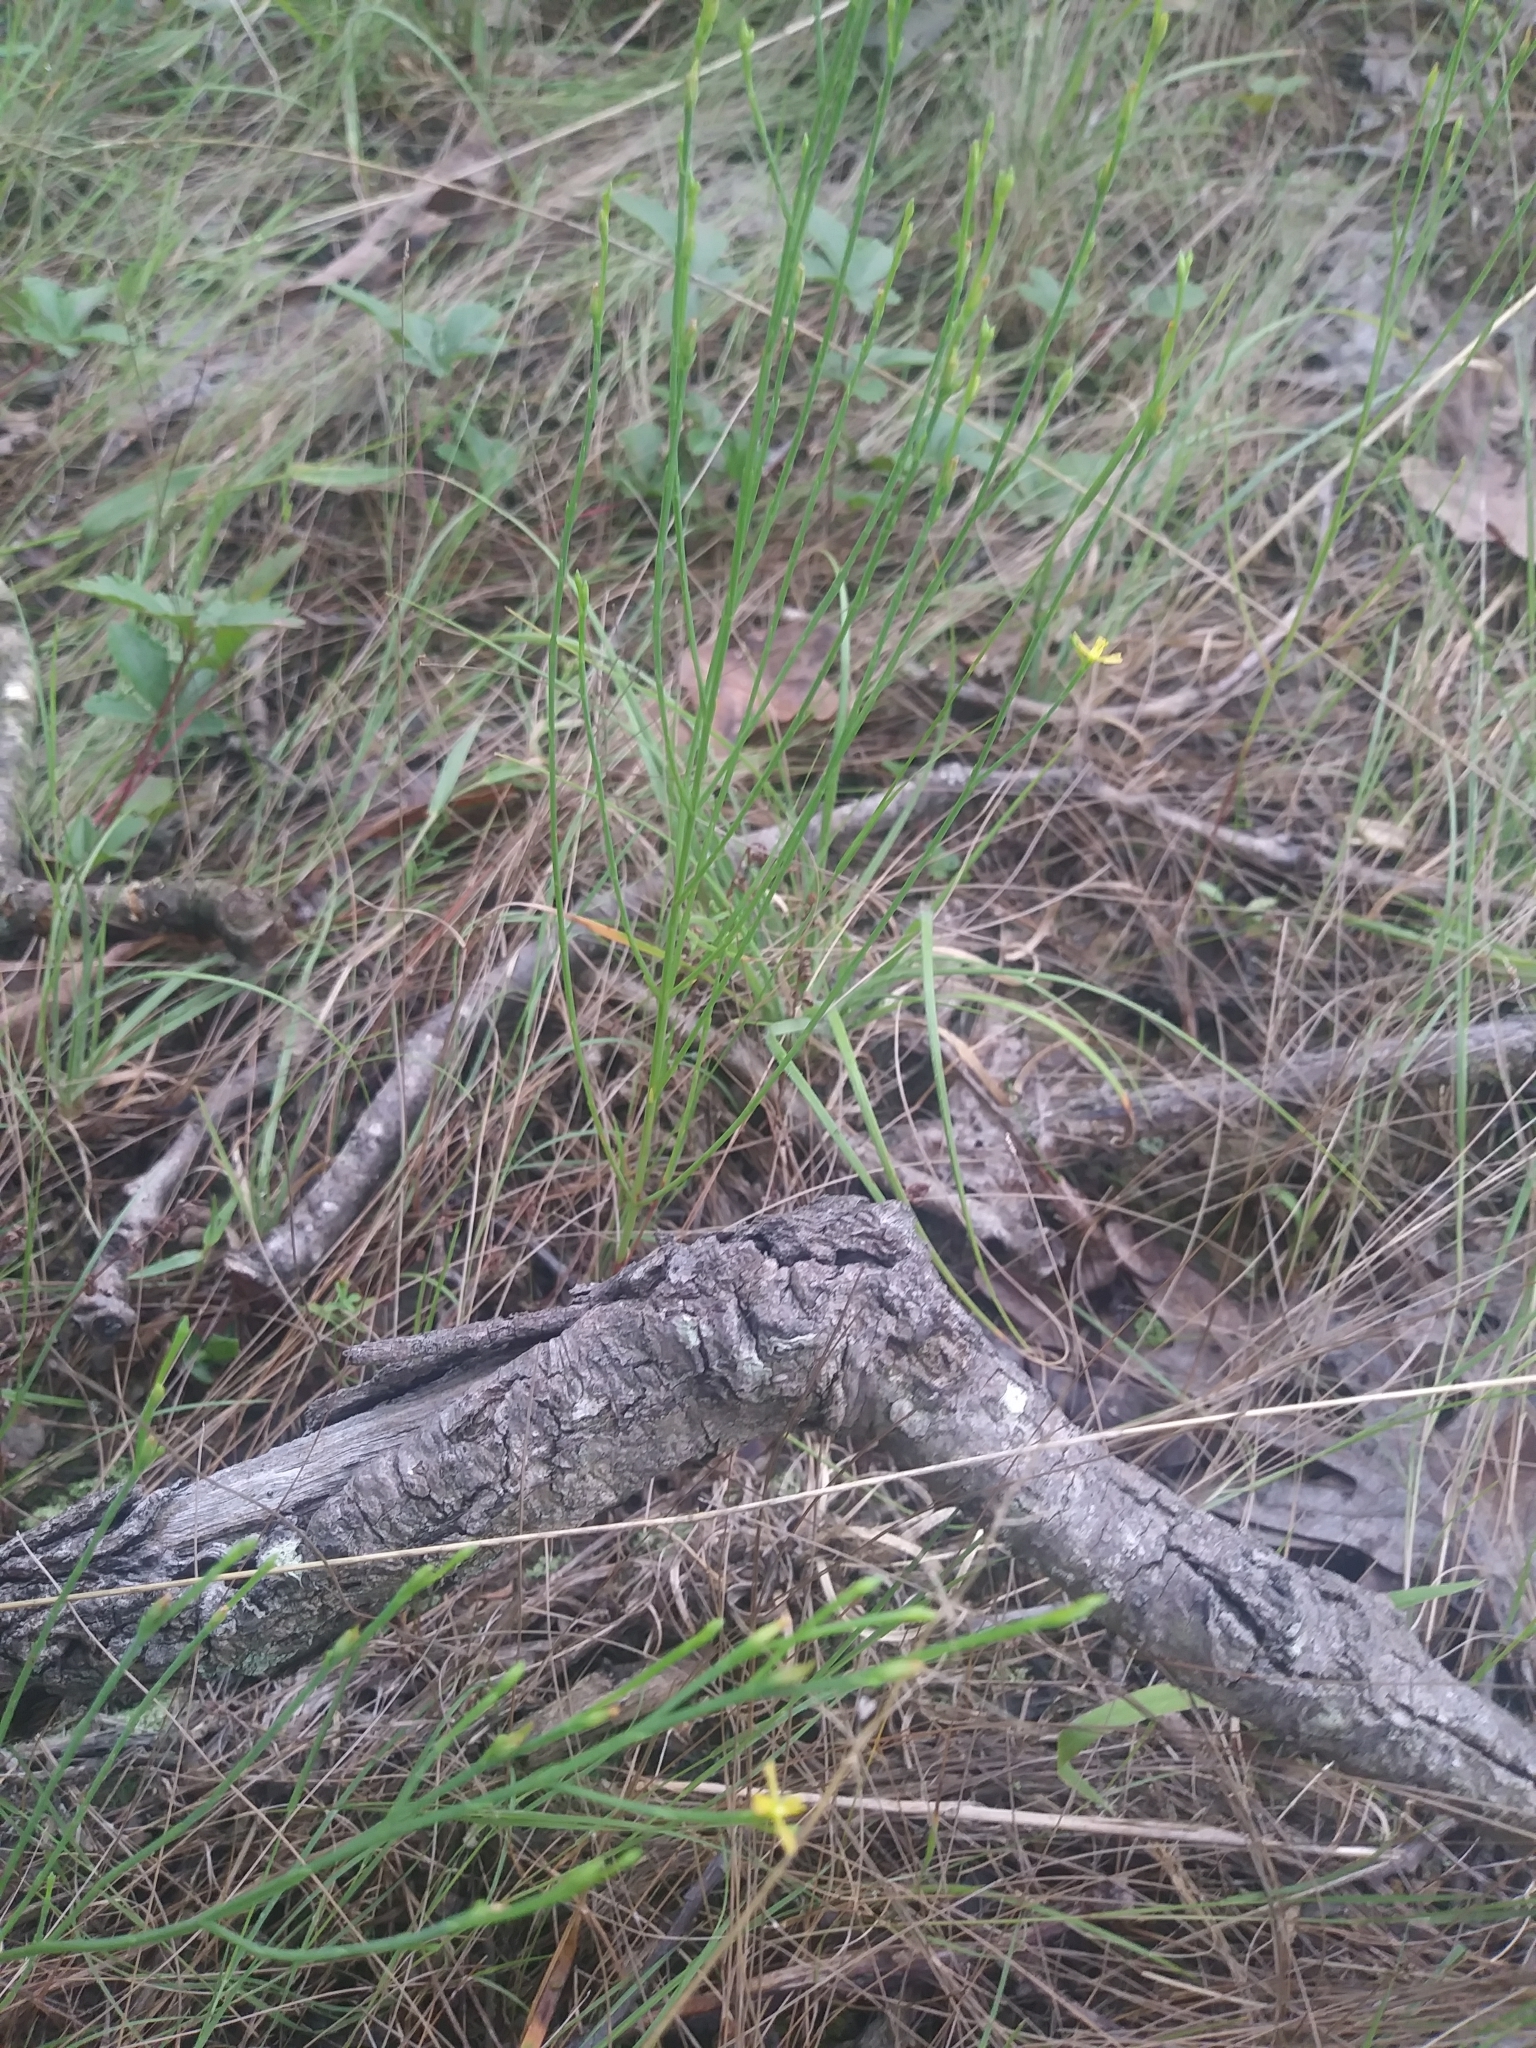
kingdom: Plantae
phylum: Tracheophyta
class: Magnoliopsida
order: Malpighiales
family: Hypericaceae
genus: Hypericum
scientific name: Hypericum gentianoides
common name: Gentian-leaved st. john's-wort
